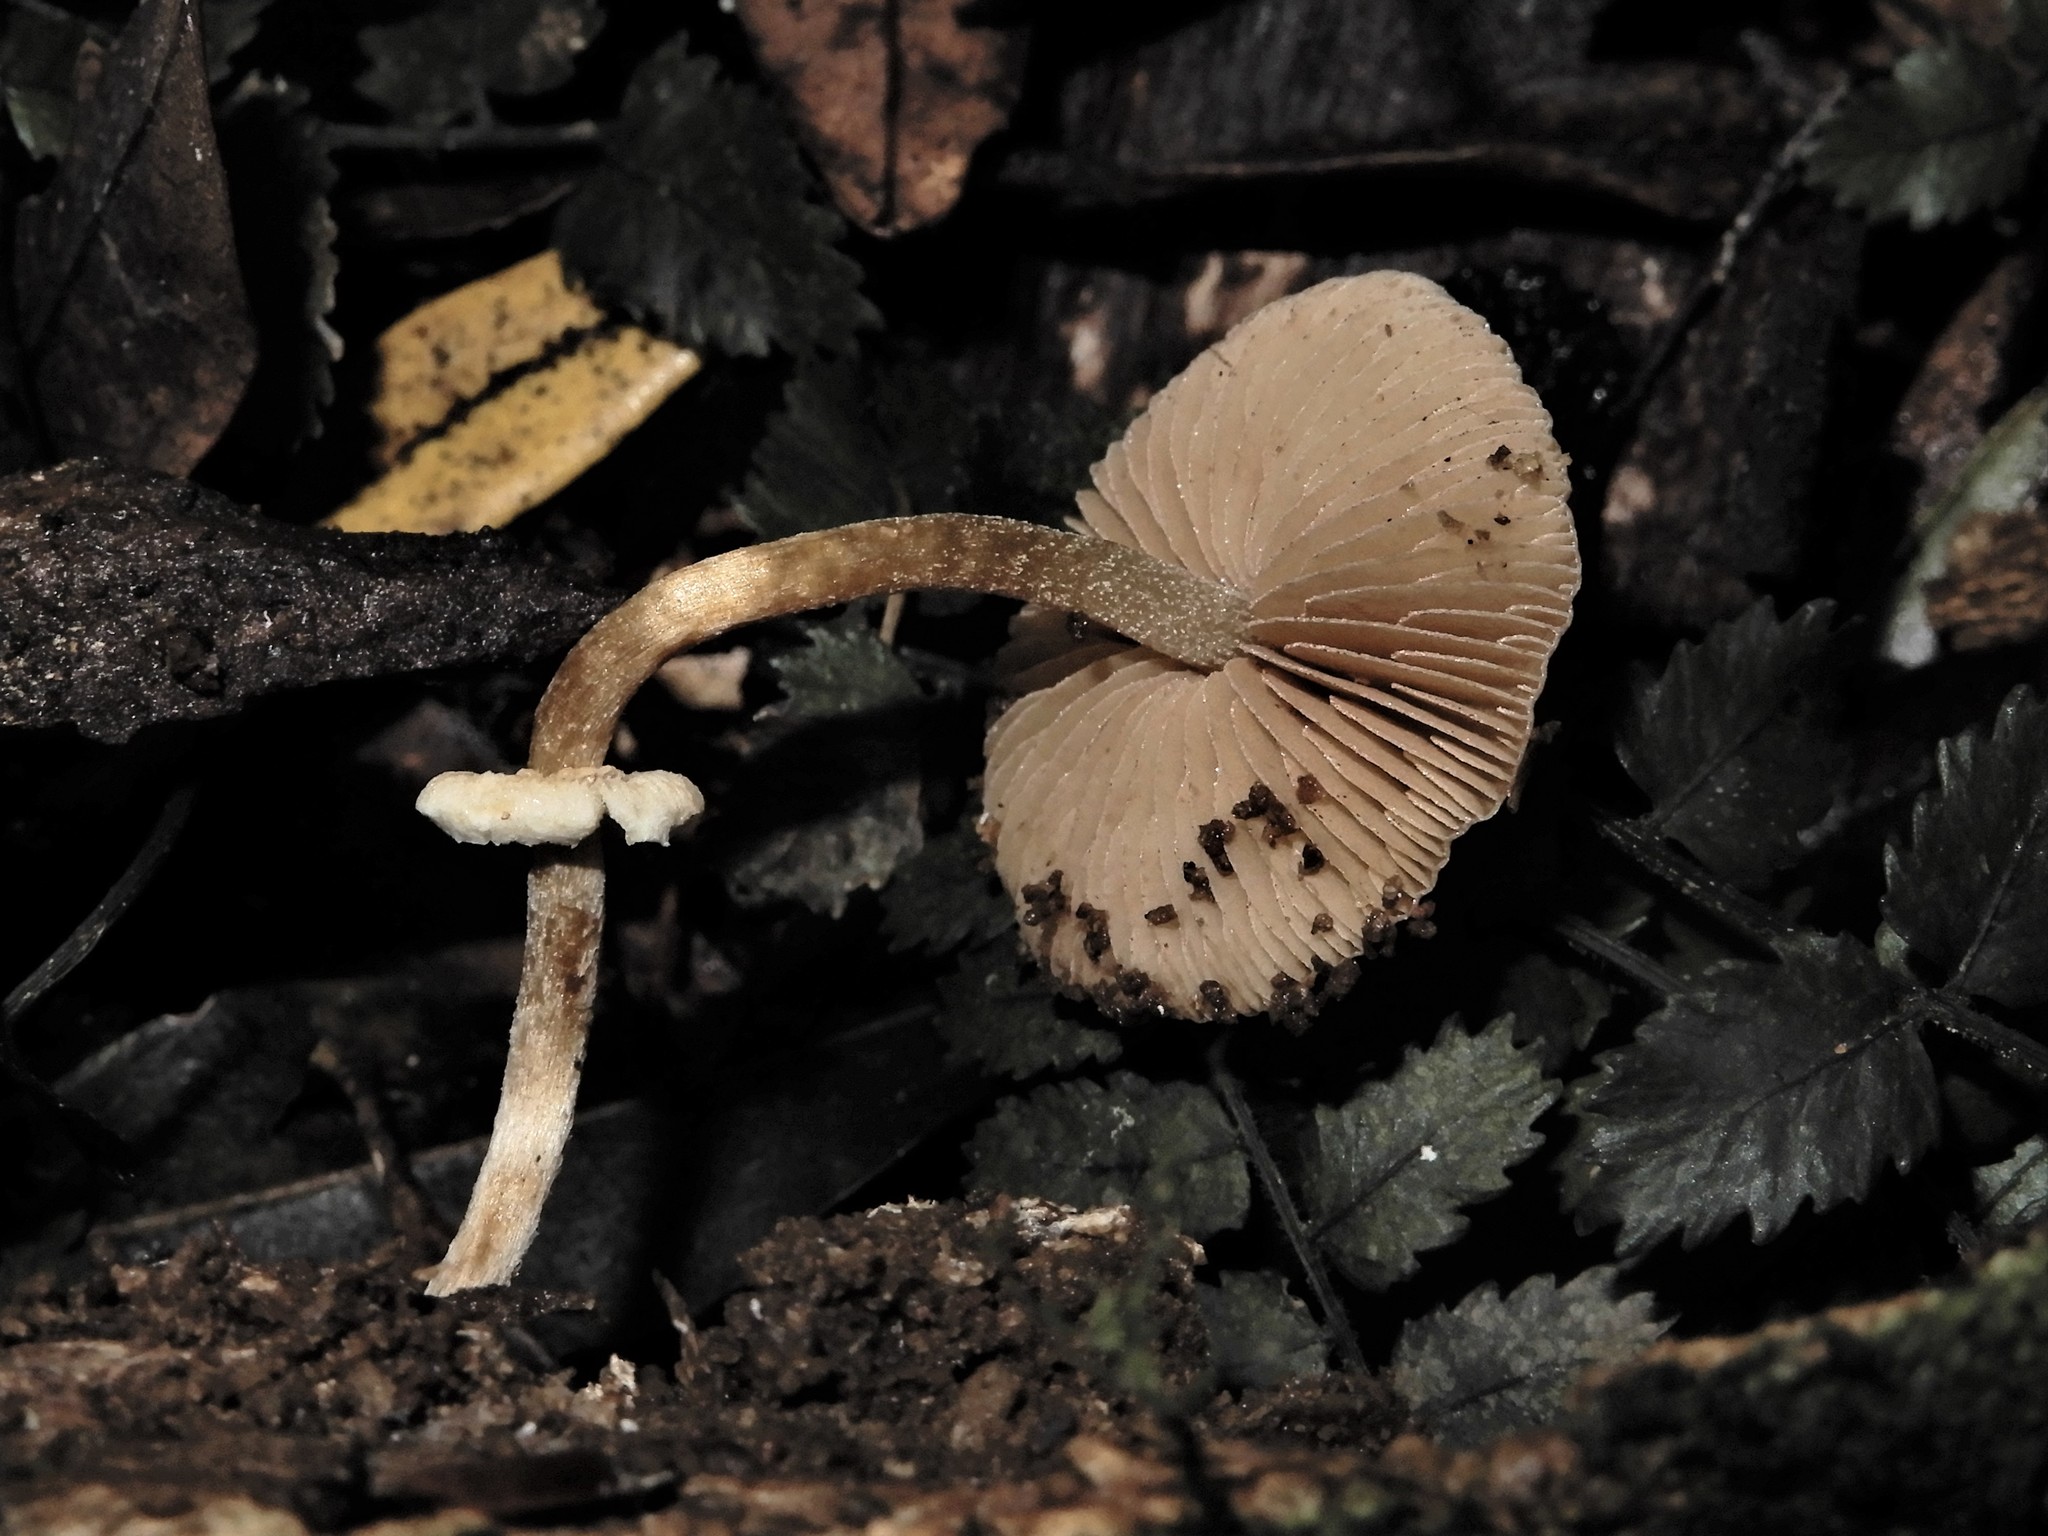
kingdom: Fungi
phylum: Basidiomycota
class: Agaricomycetes
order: Agaricales
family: Bolbitiaceae
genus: Pholiotina
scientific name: Pholiotina gracilenta
